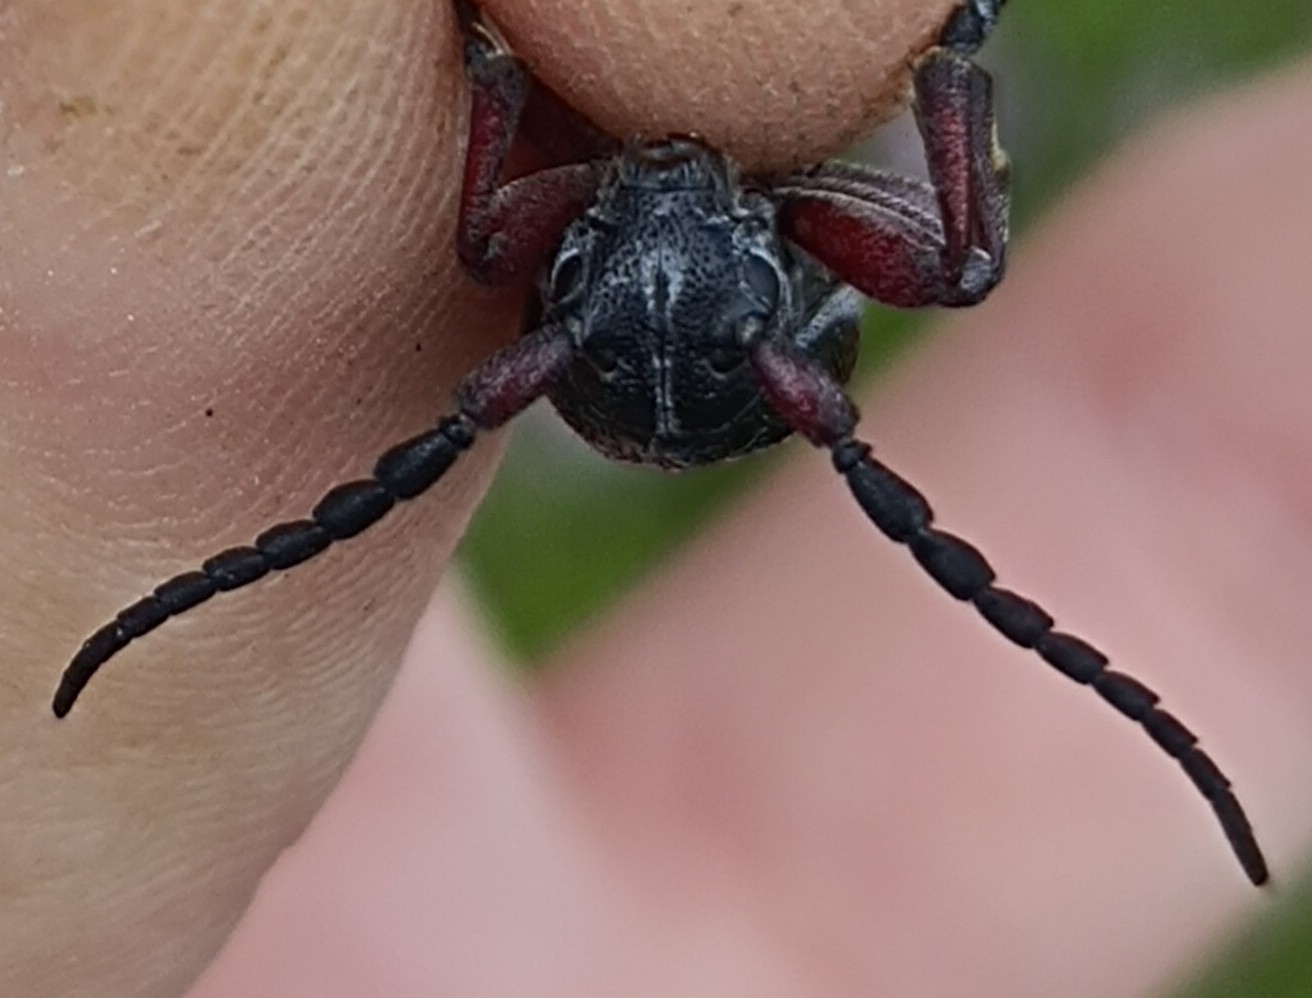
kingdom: Animalia
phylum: Arthropoda
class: Insecta
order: Coleoptera
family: Cerambycidae
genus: Dorcadion
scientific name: Dorcadion pedestre
